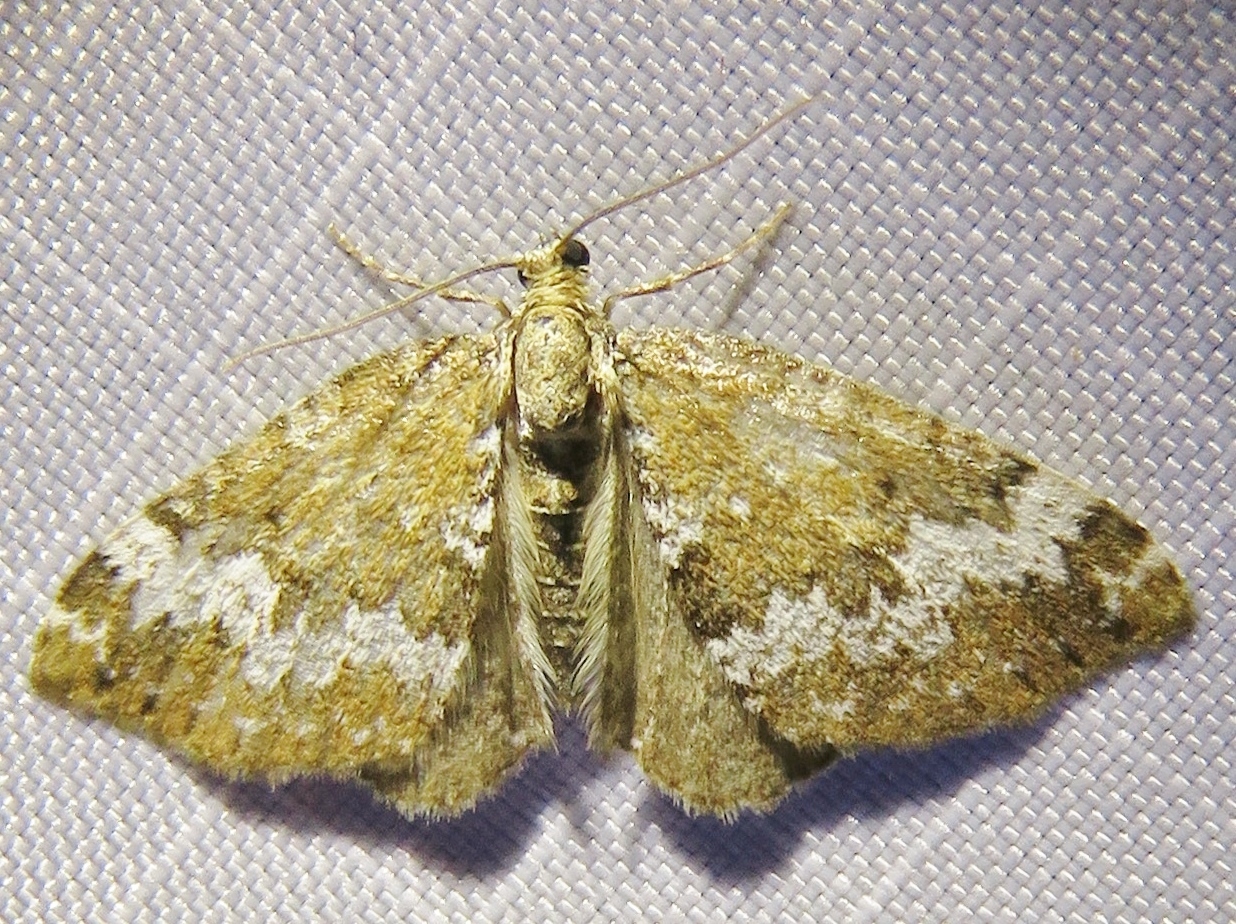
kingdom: Animalia
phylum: Arthropoda
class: Insecta
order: Lepidoptera
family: Geometridae
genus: Perizoma
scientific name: Perizoma alchemillata
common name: Small rivulet
